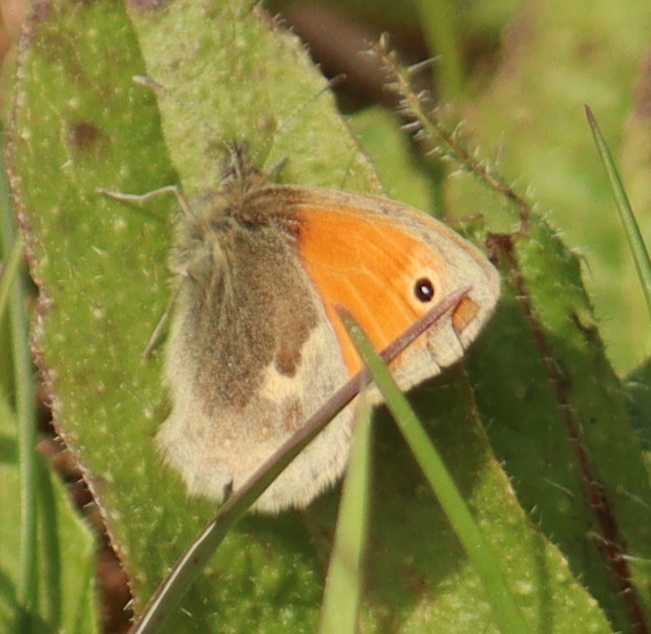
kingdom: Animalia
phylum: Arthropoda
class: Insecta
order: Lepidoptera
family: Nymphalidae
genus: Coenonympha
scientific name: Coenonympha pamphilus
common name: Small heath
